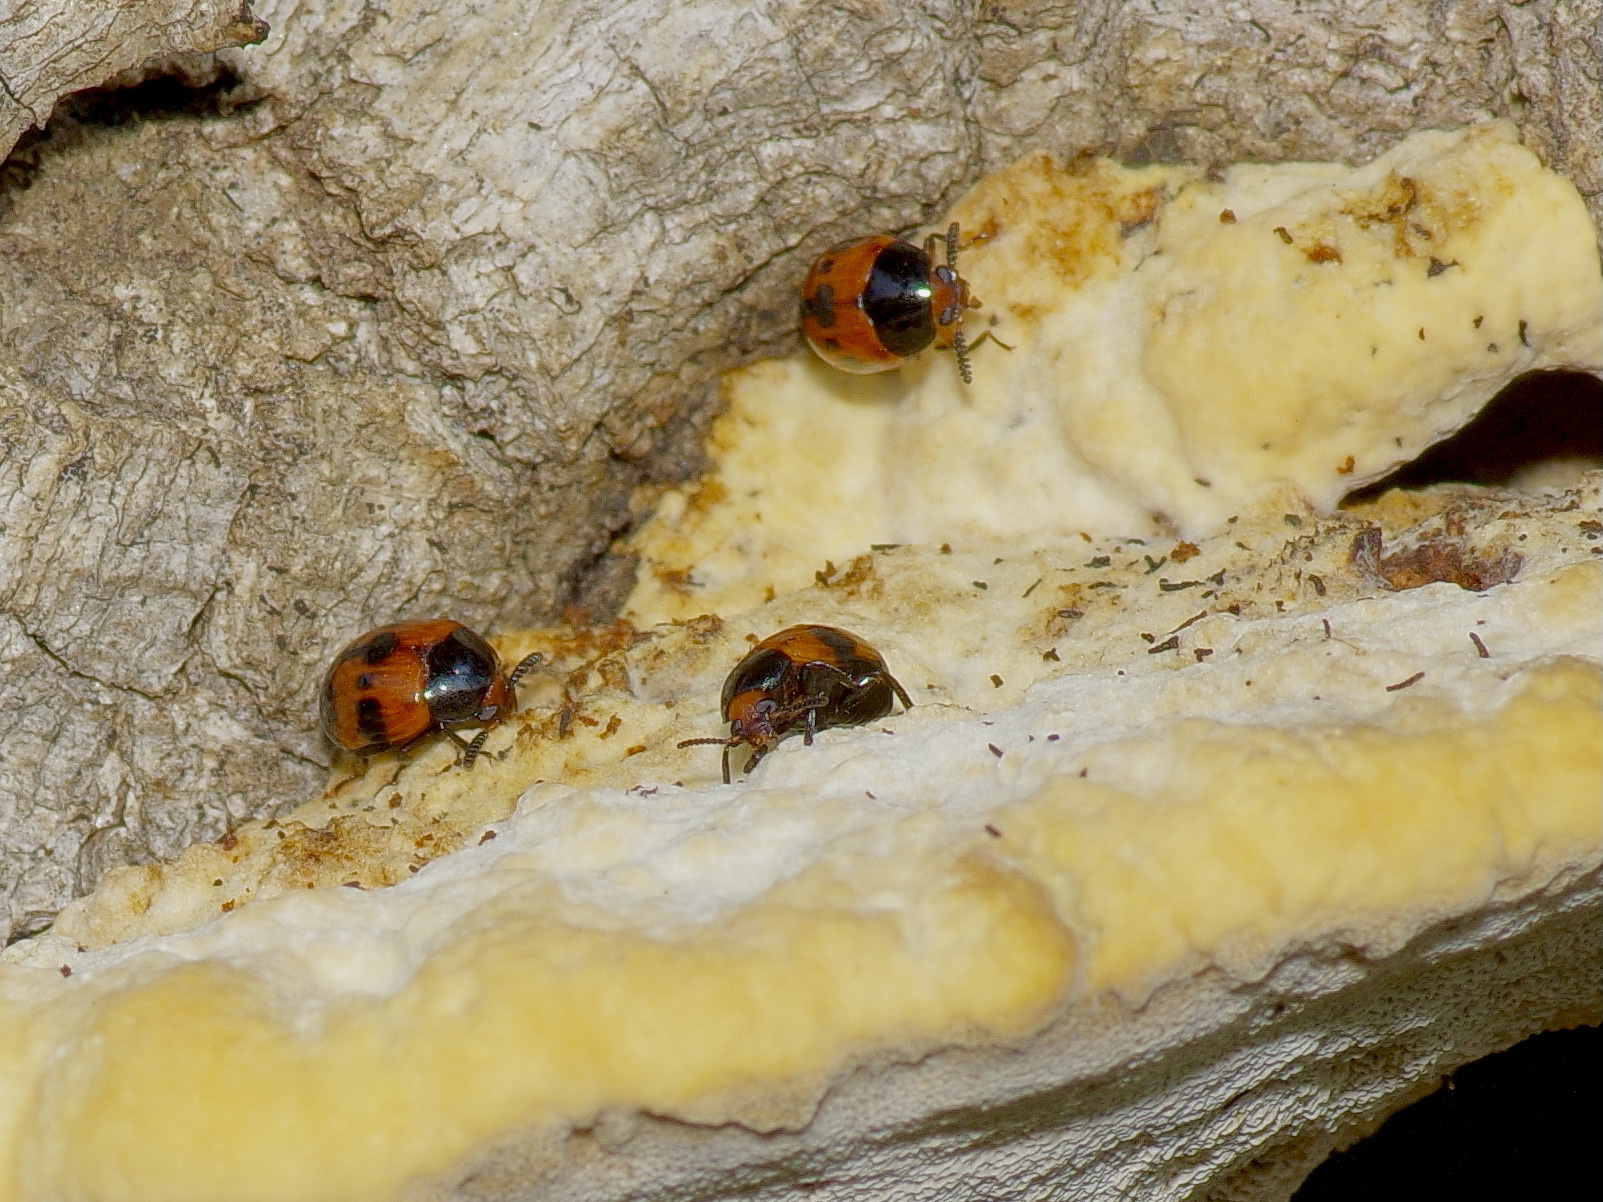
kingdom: Animalia
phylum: Arthropoda
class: Insecta
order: Coleoptera
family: Tenebrionidae
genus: Diaperis
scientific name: Diaperis nigronotata
